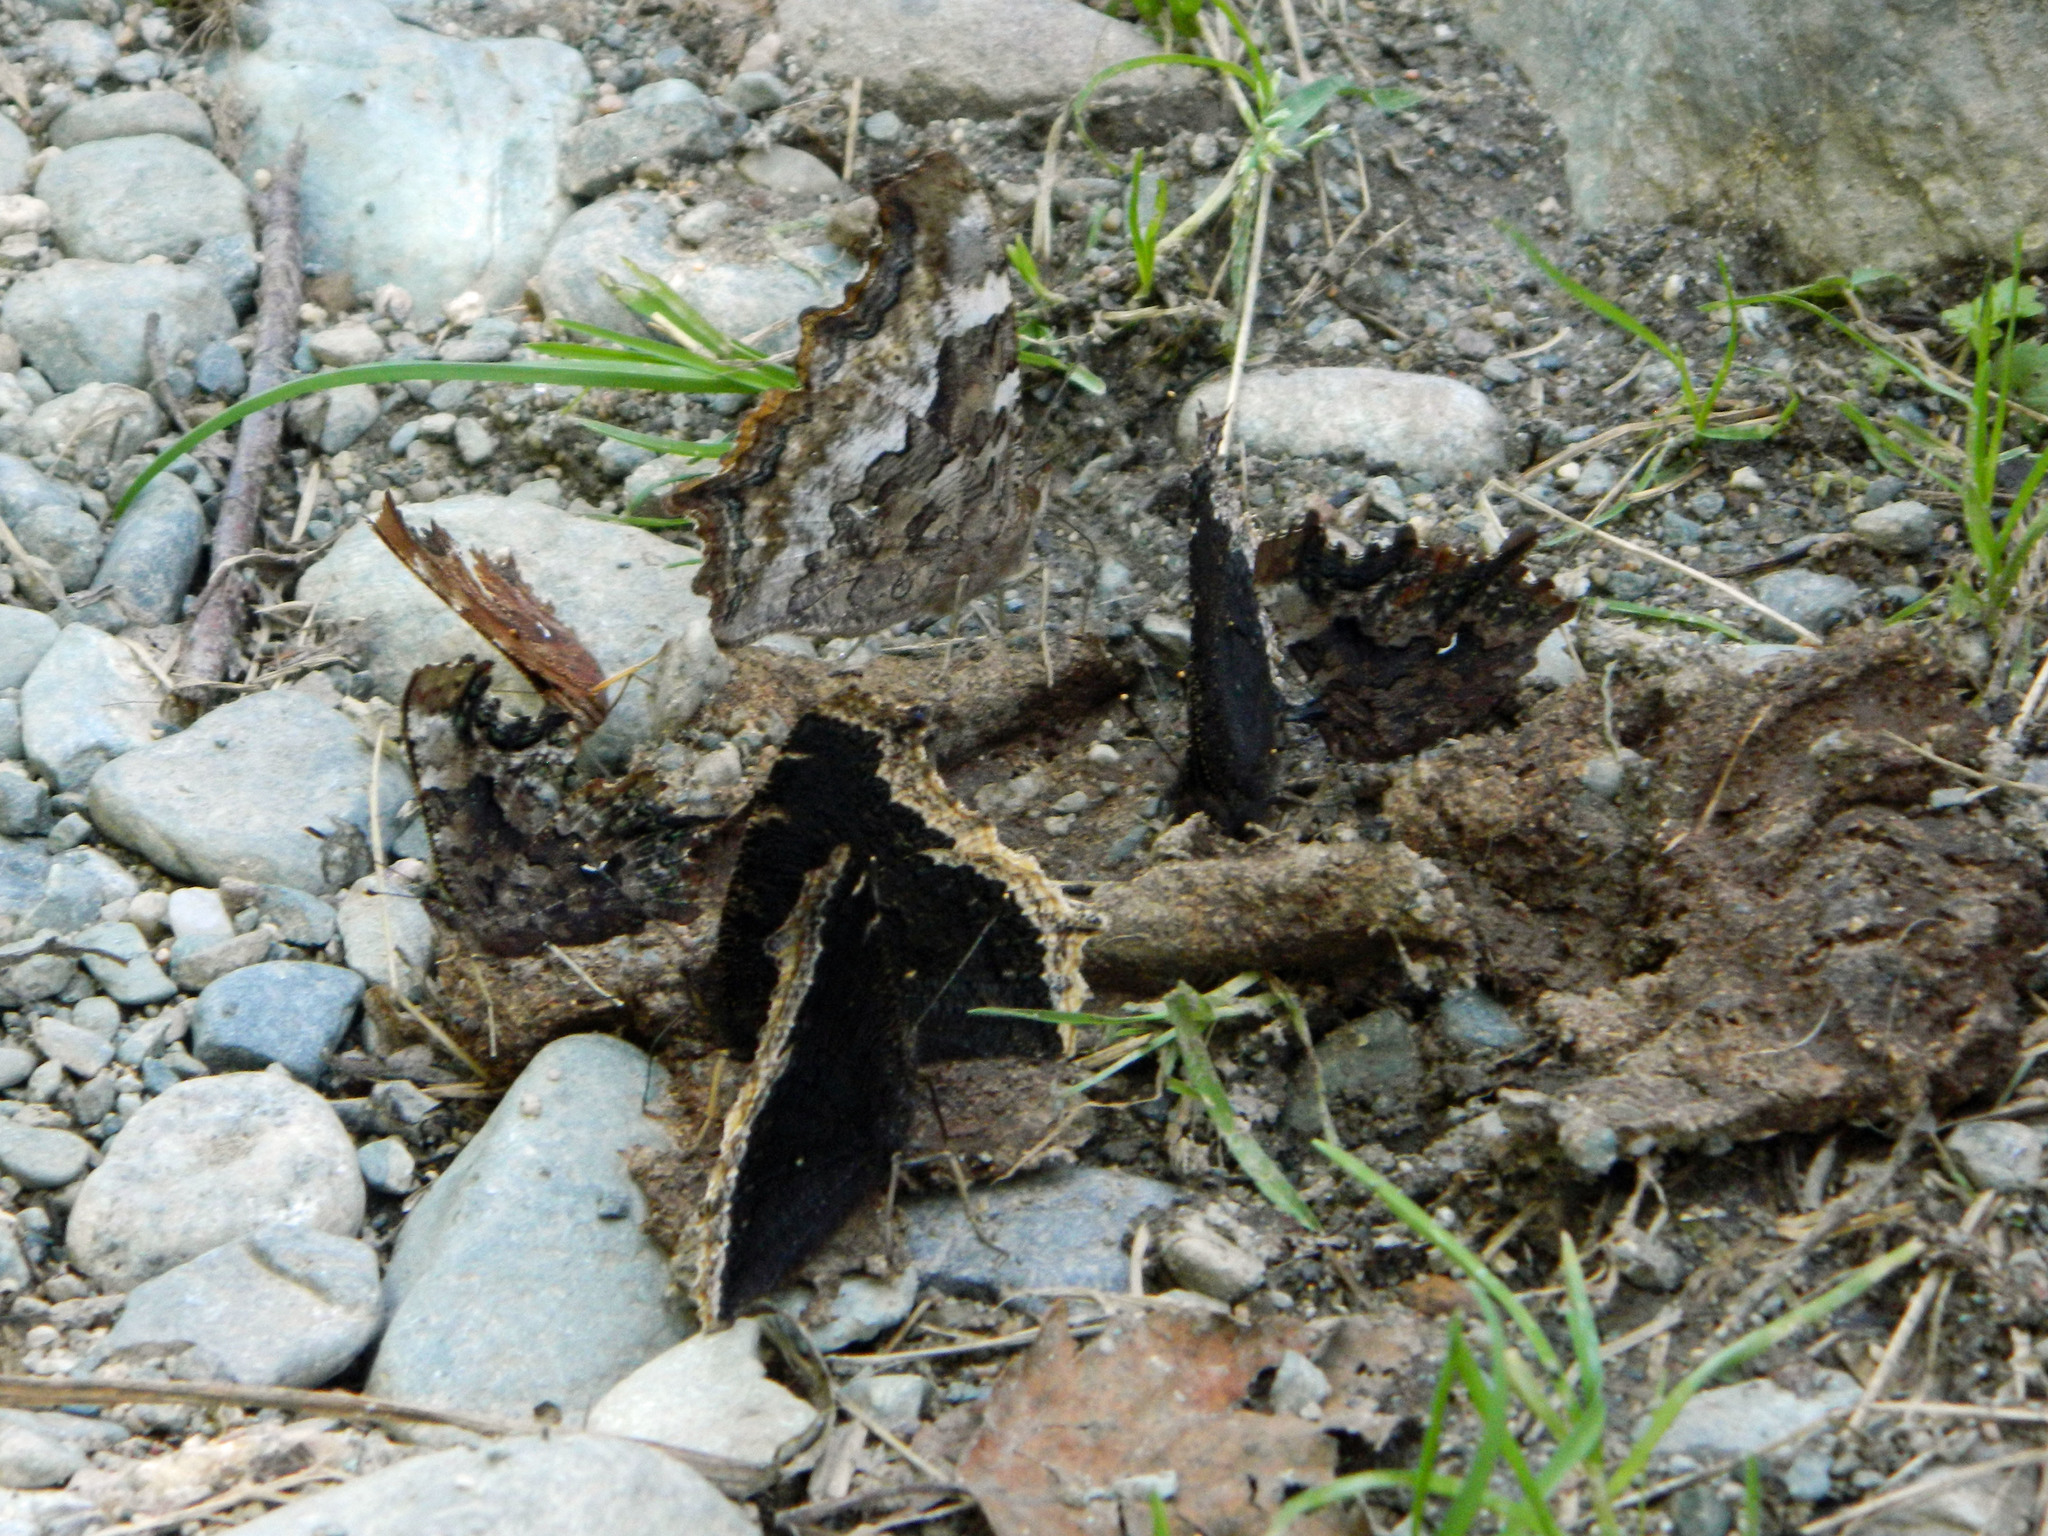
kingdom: Animalia
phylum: Arthropoda
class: Insecta
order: Lepidoptera
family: Nymphalidae
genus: Nymphalis
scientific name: Nymphalis antiopa
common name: Camberwell beauty
